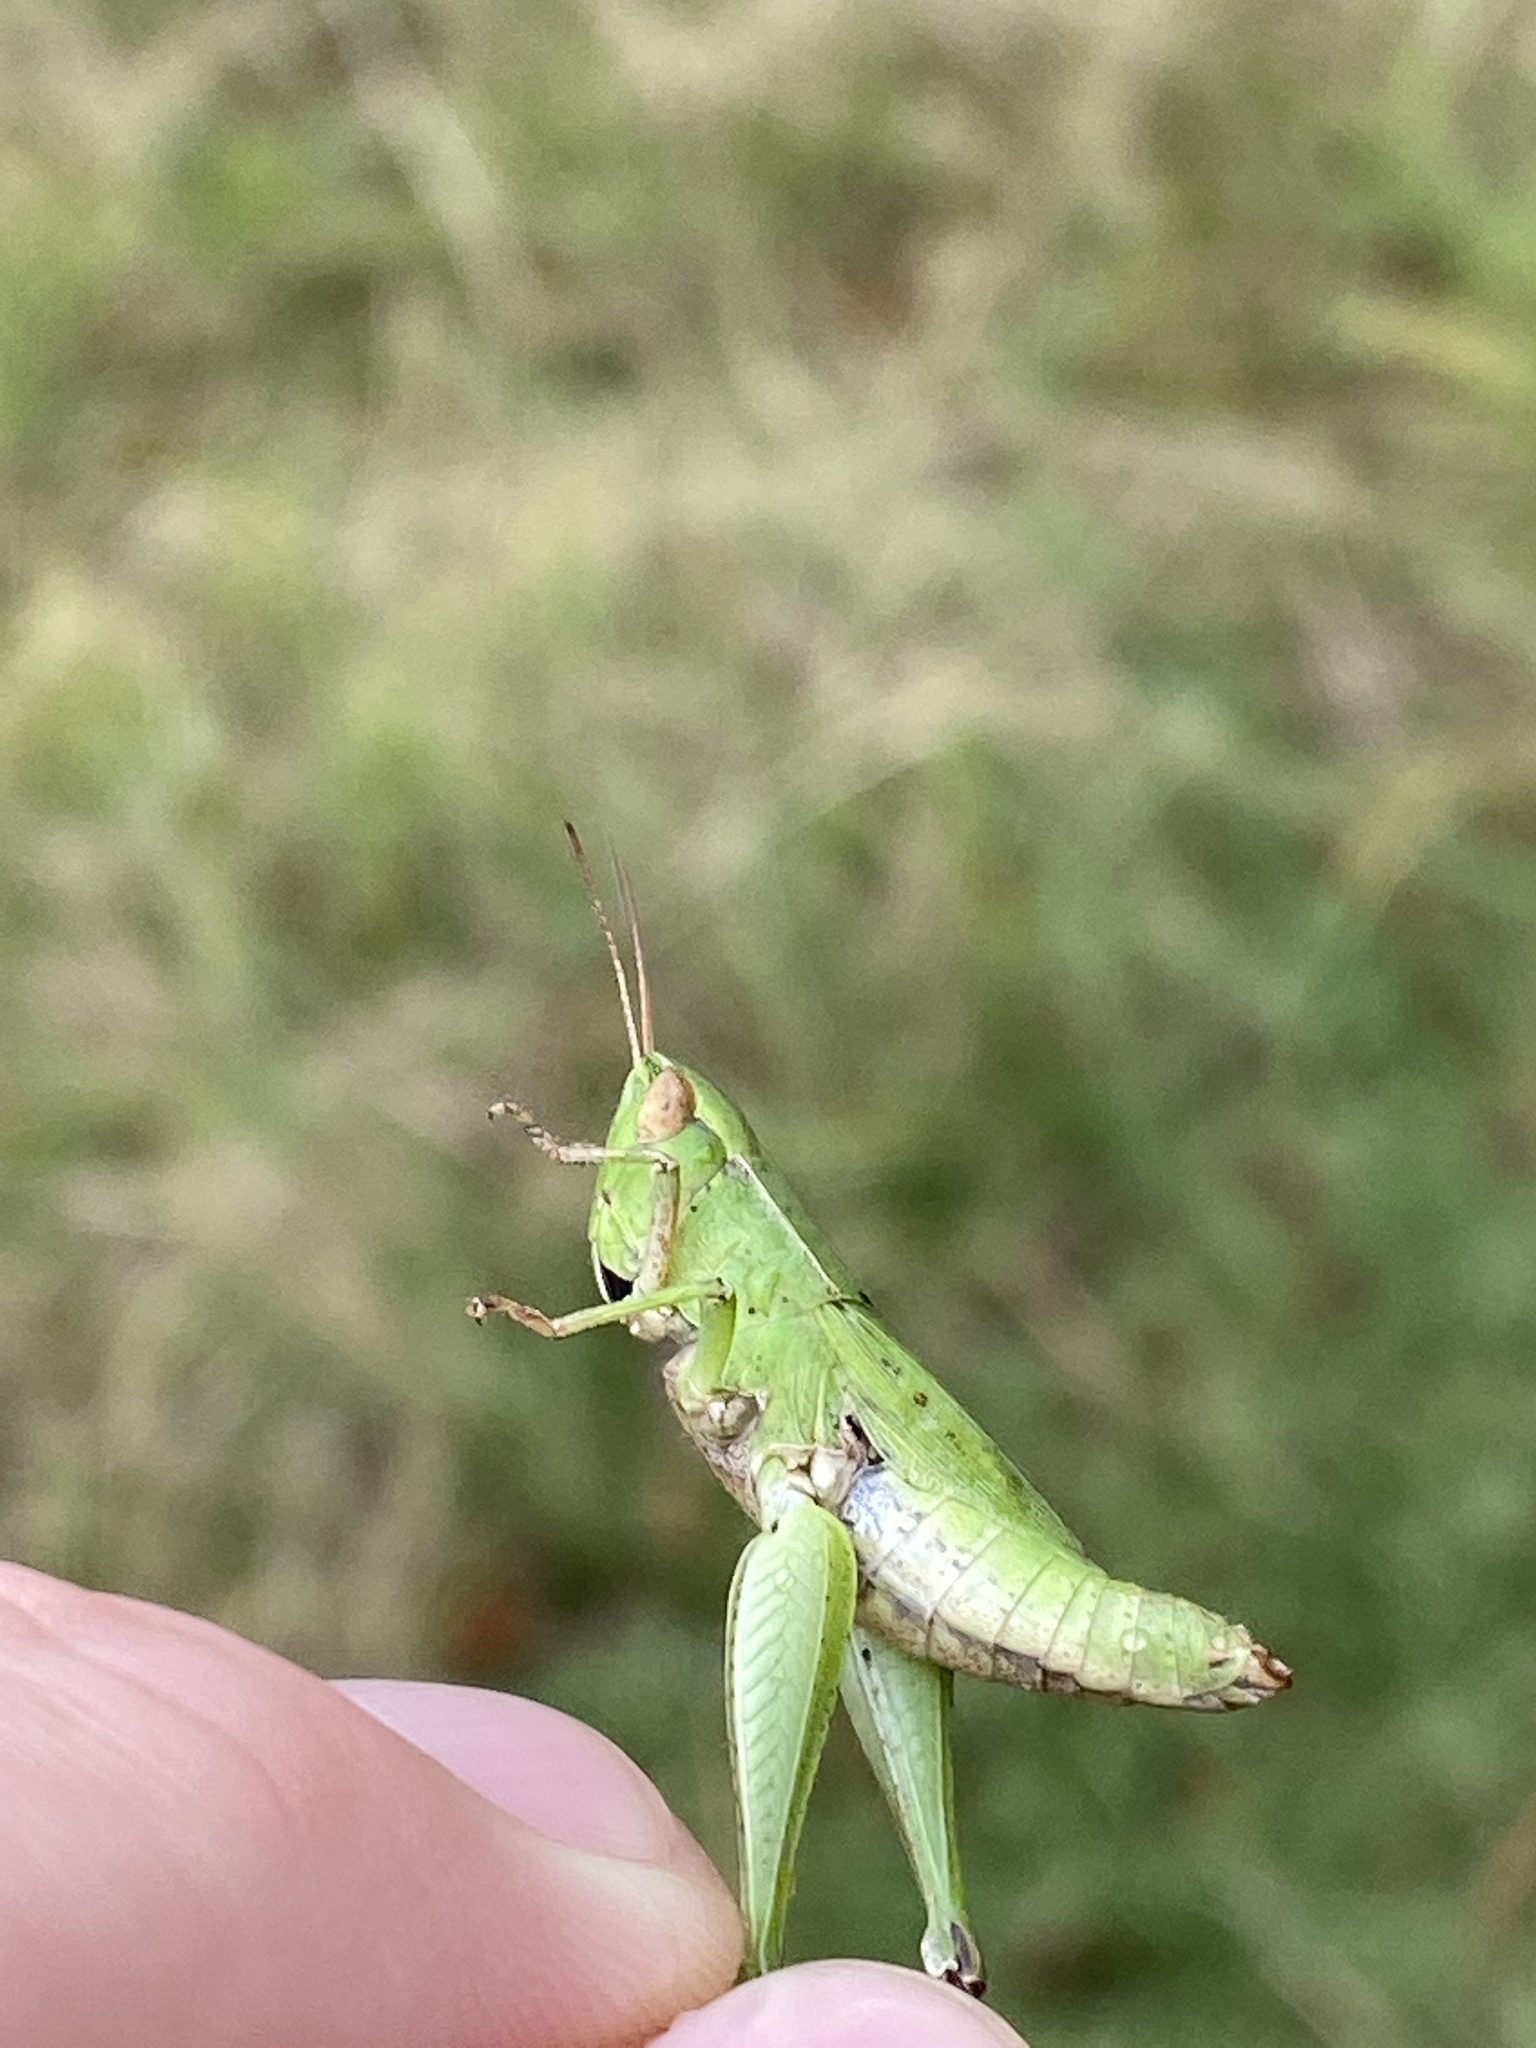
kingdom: Animalia
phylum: Arthropoda
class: Insecta
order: Orthoptera
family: Acrididae
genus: Dichromorpha
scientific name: Dichromorpha viridis
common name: Short-winged green grasshopper
